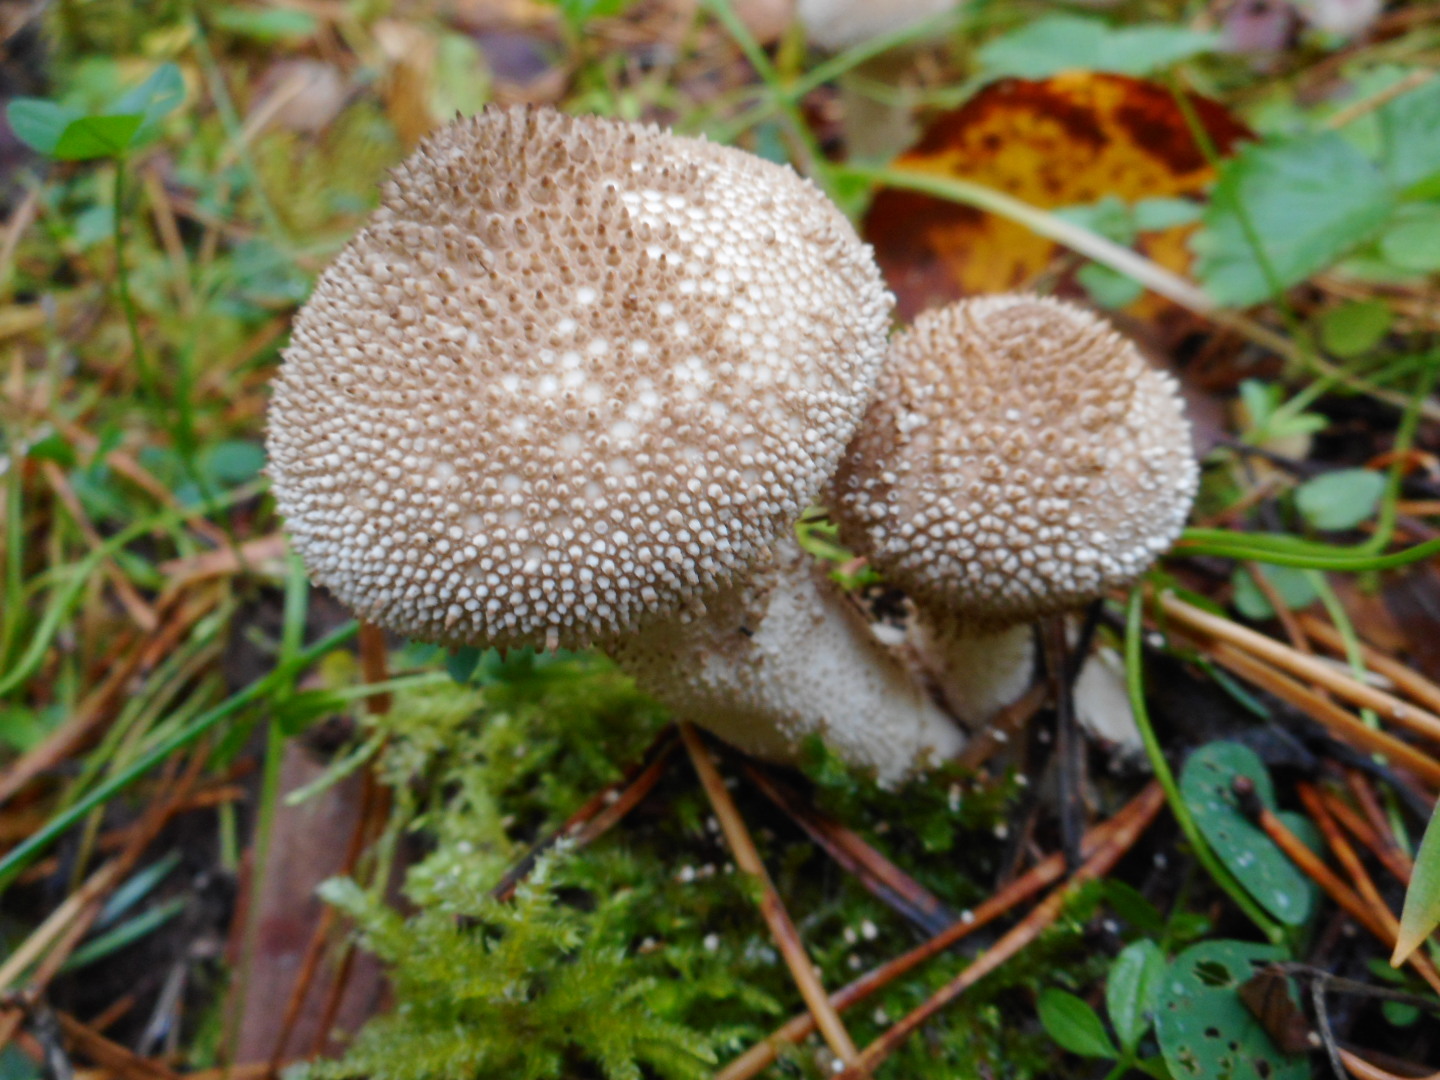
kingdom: Fungi
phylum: Basidiomycota
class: Agaricomycetes
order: Agaricales
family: Lycoperdaceae
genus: Lycoperdon
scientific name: Lycoperdon perlatum
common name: Common puffball
